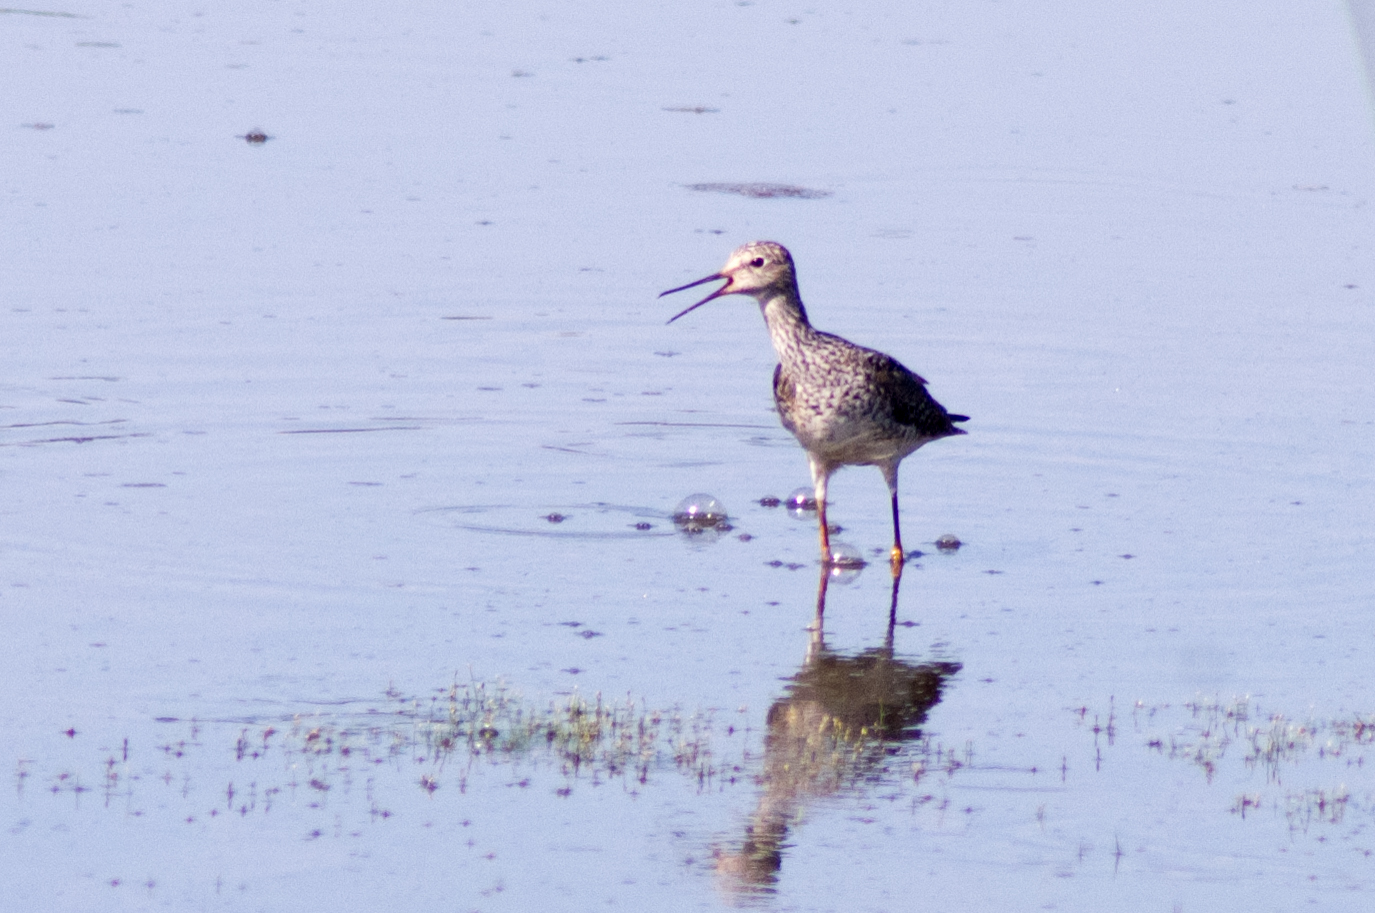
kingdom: Animalia
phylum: Chordata
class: Aves
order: Charadriiformes
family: Scolopacidae
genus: Tringa
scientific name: Tringa flavipes
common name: Lesser yellowlegs
